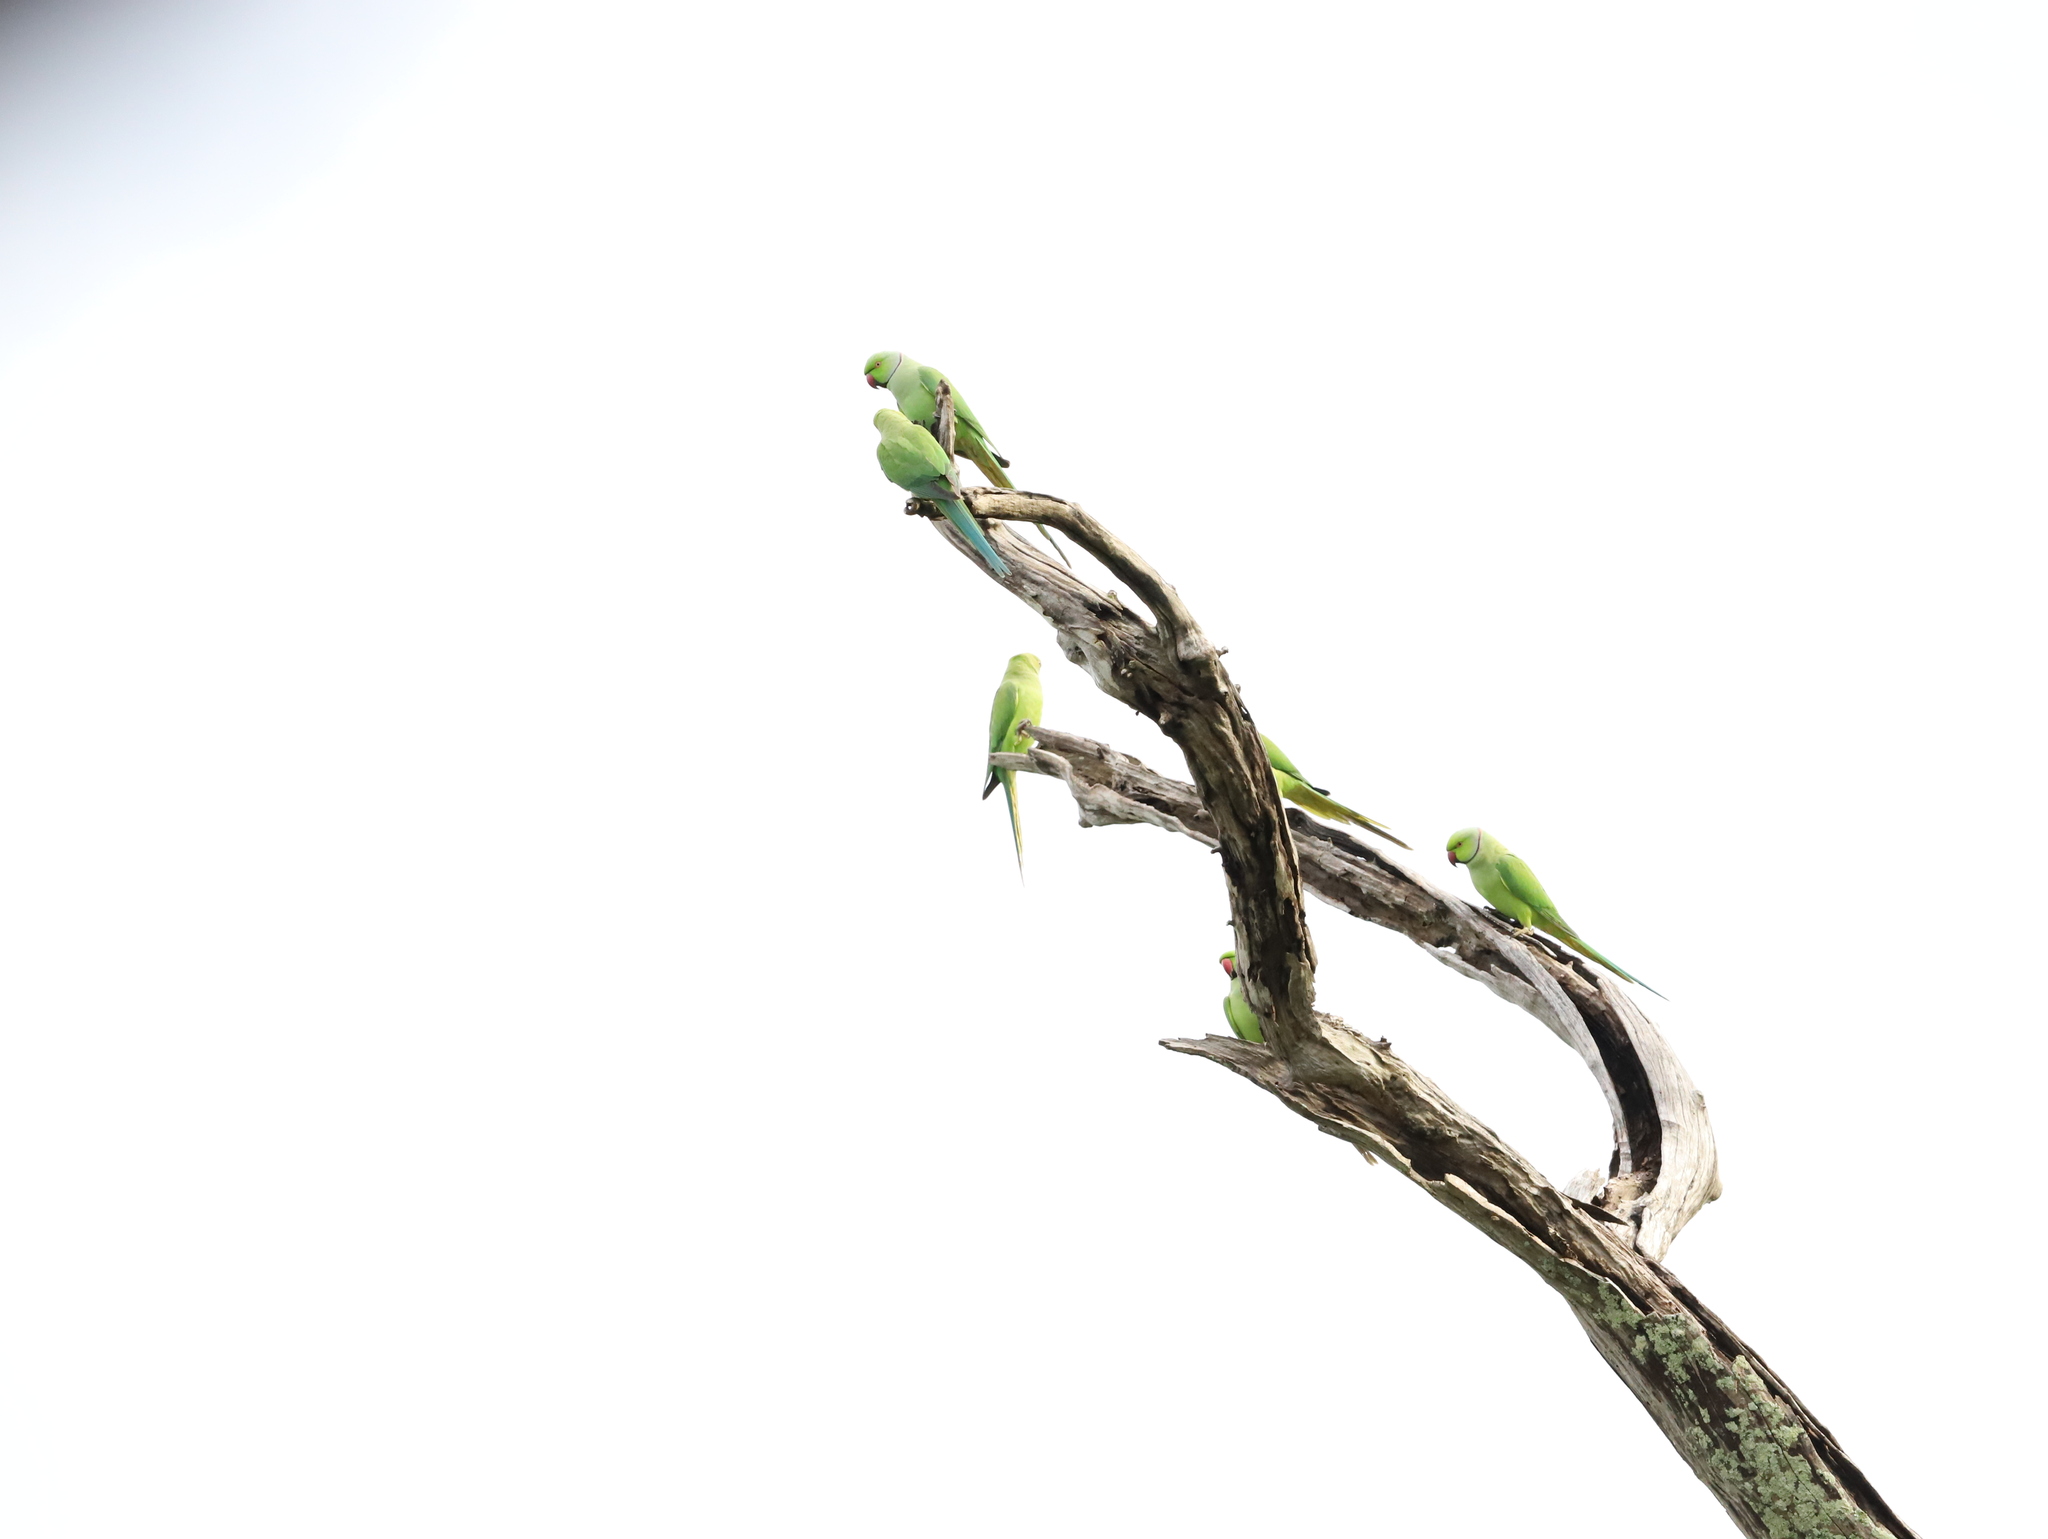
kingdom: Animalia
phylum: Chordata
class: Aves
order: Psittaciformes
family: Psittacidae
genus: Psittacula
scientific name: Psittacula krameri
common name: Rose-ringed parakeet
